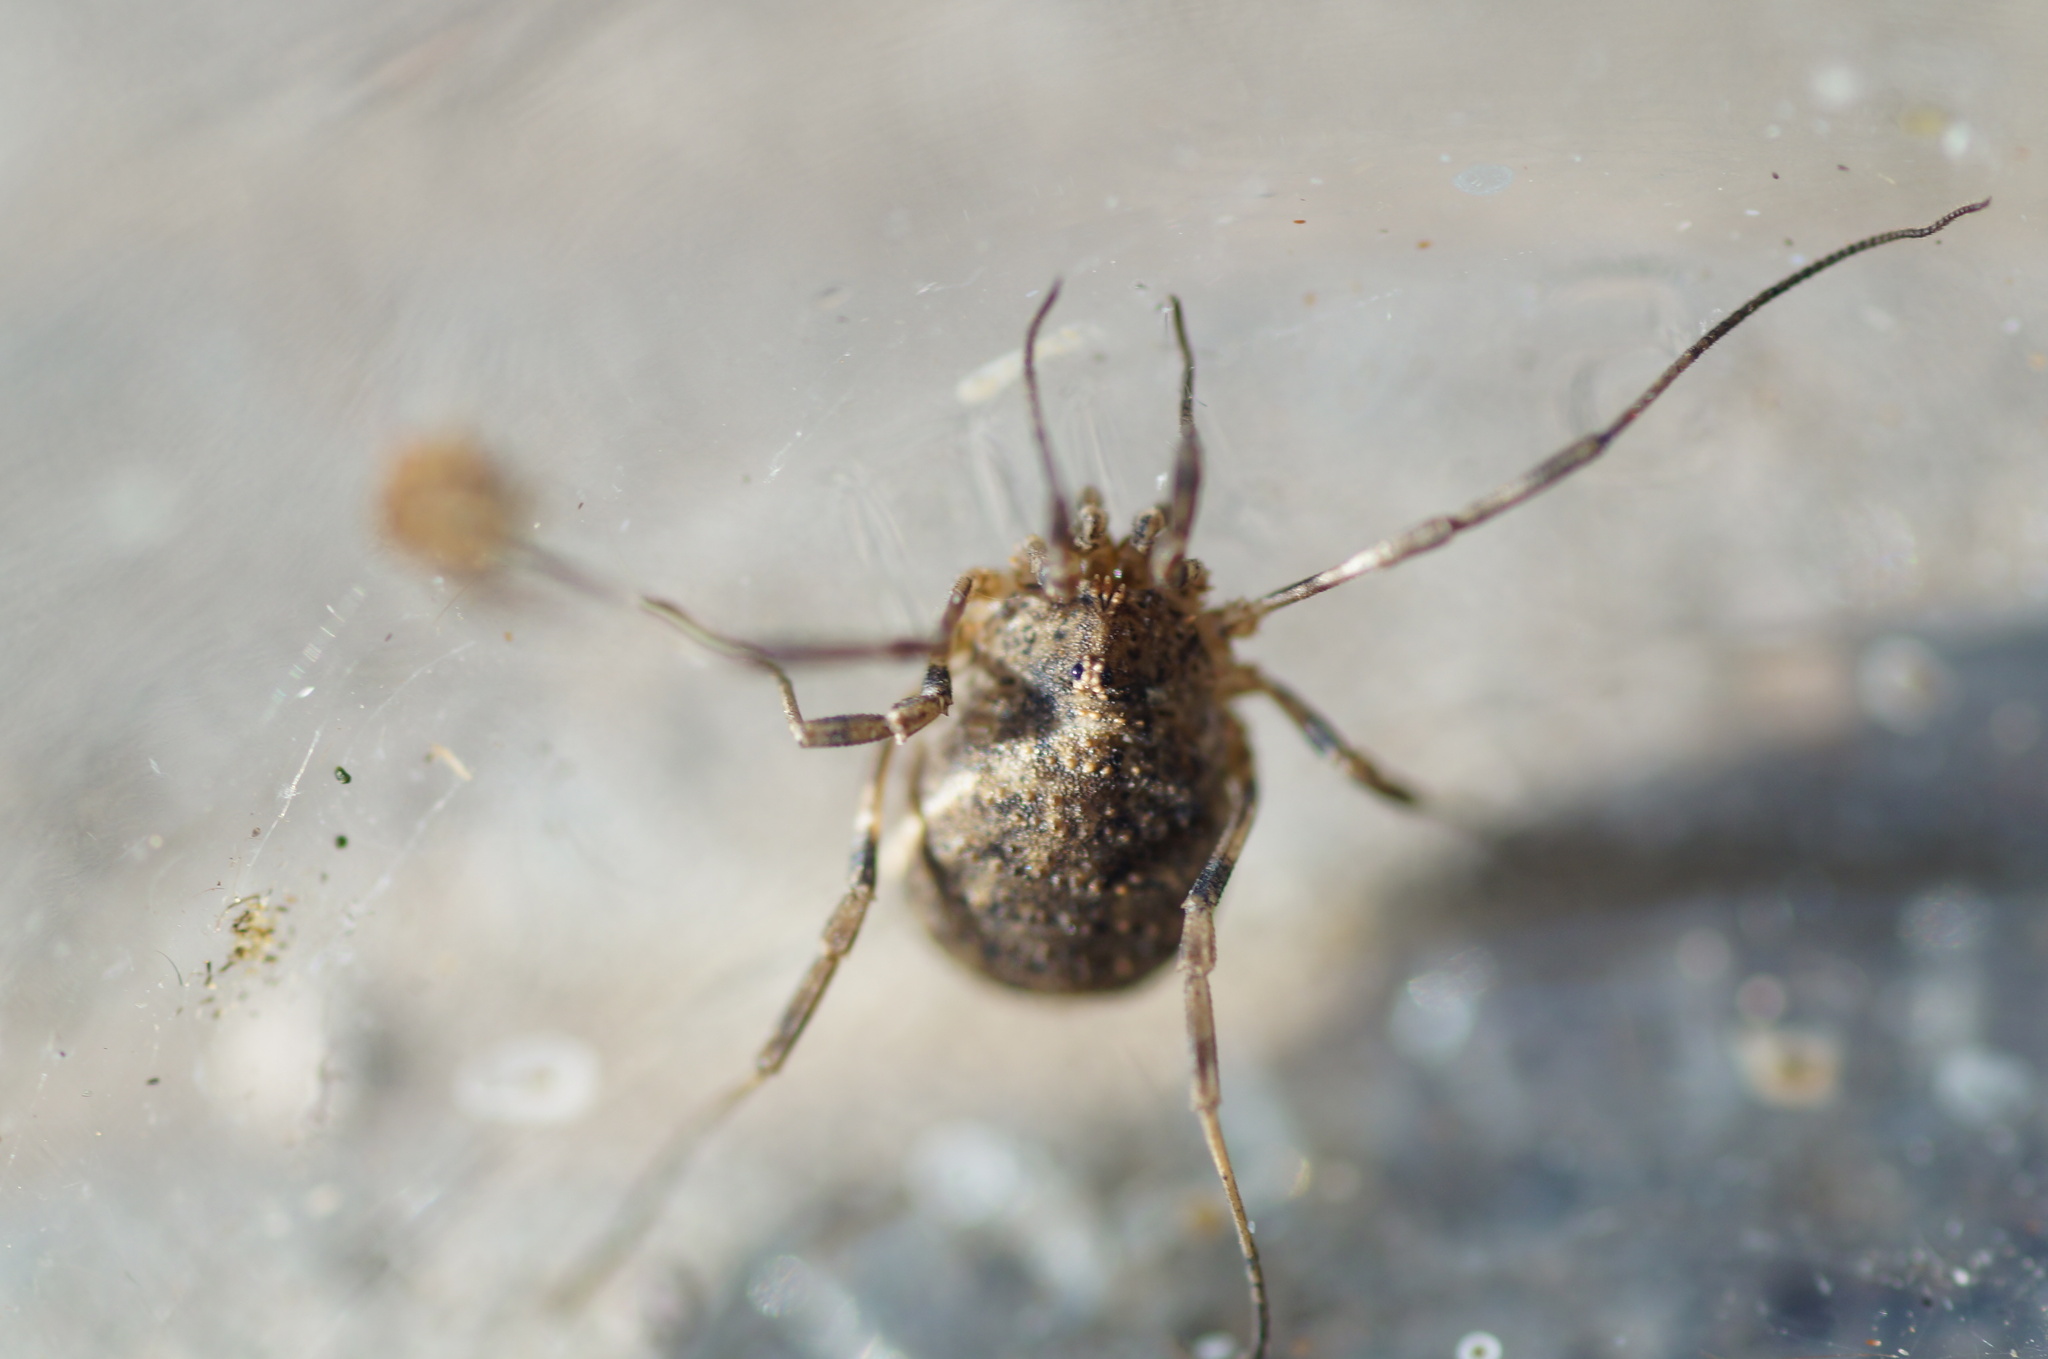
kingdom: Animalia
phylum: Arthropoda
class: Arachnida
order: Opiliones
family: Phalangiidae
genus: Odiellus
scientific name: Odiellus lendlii
